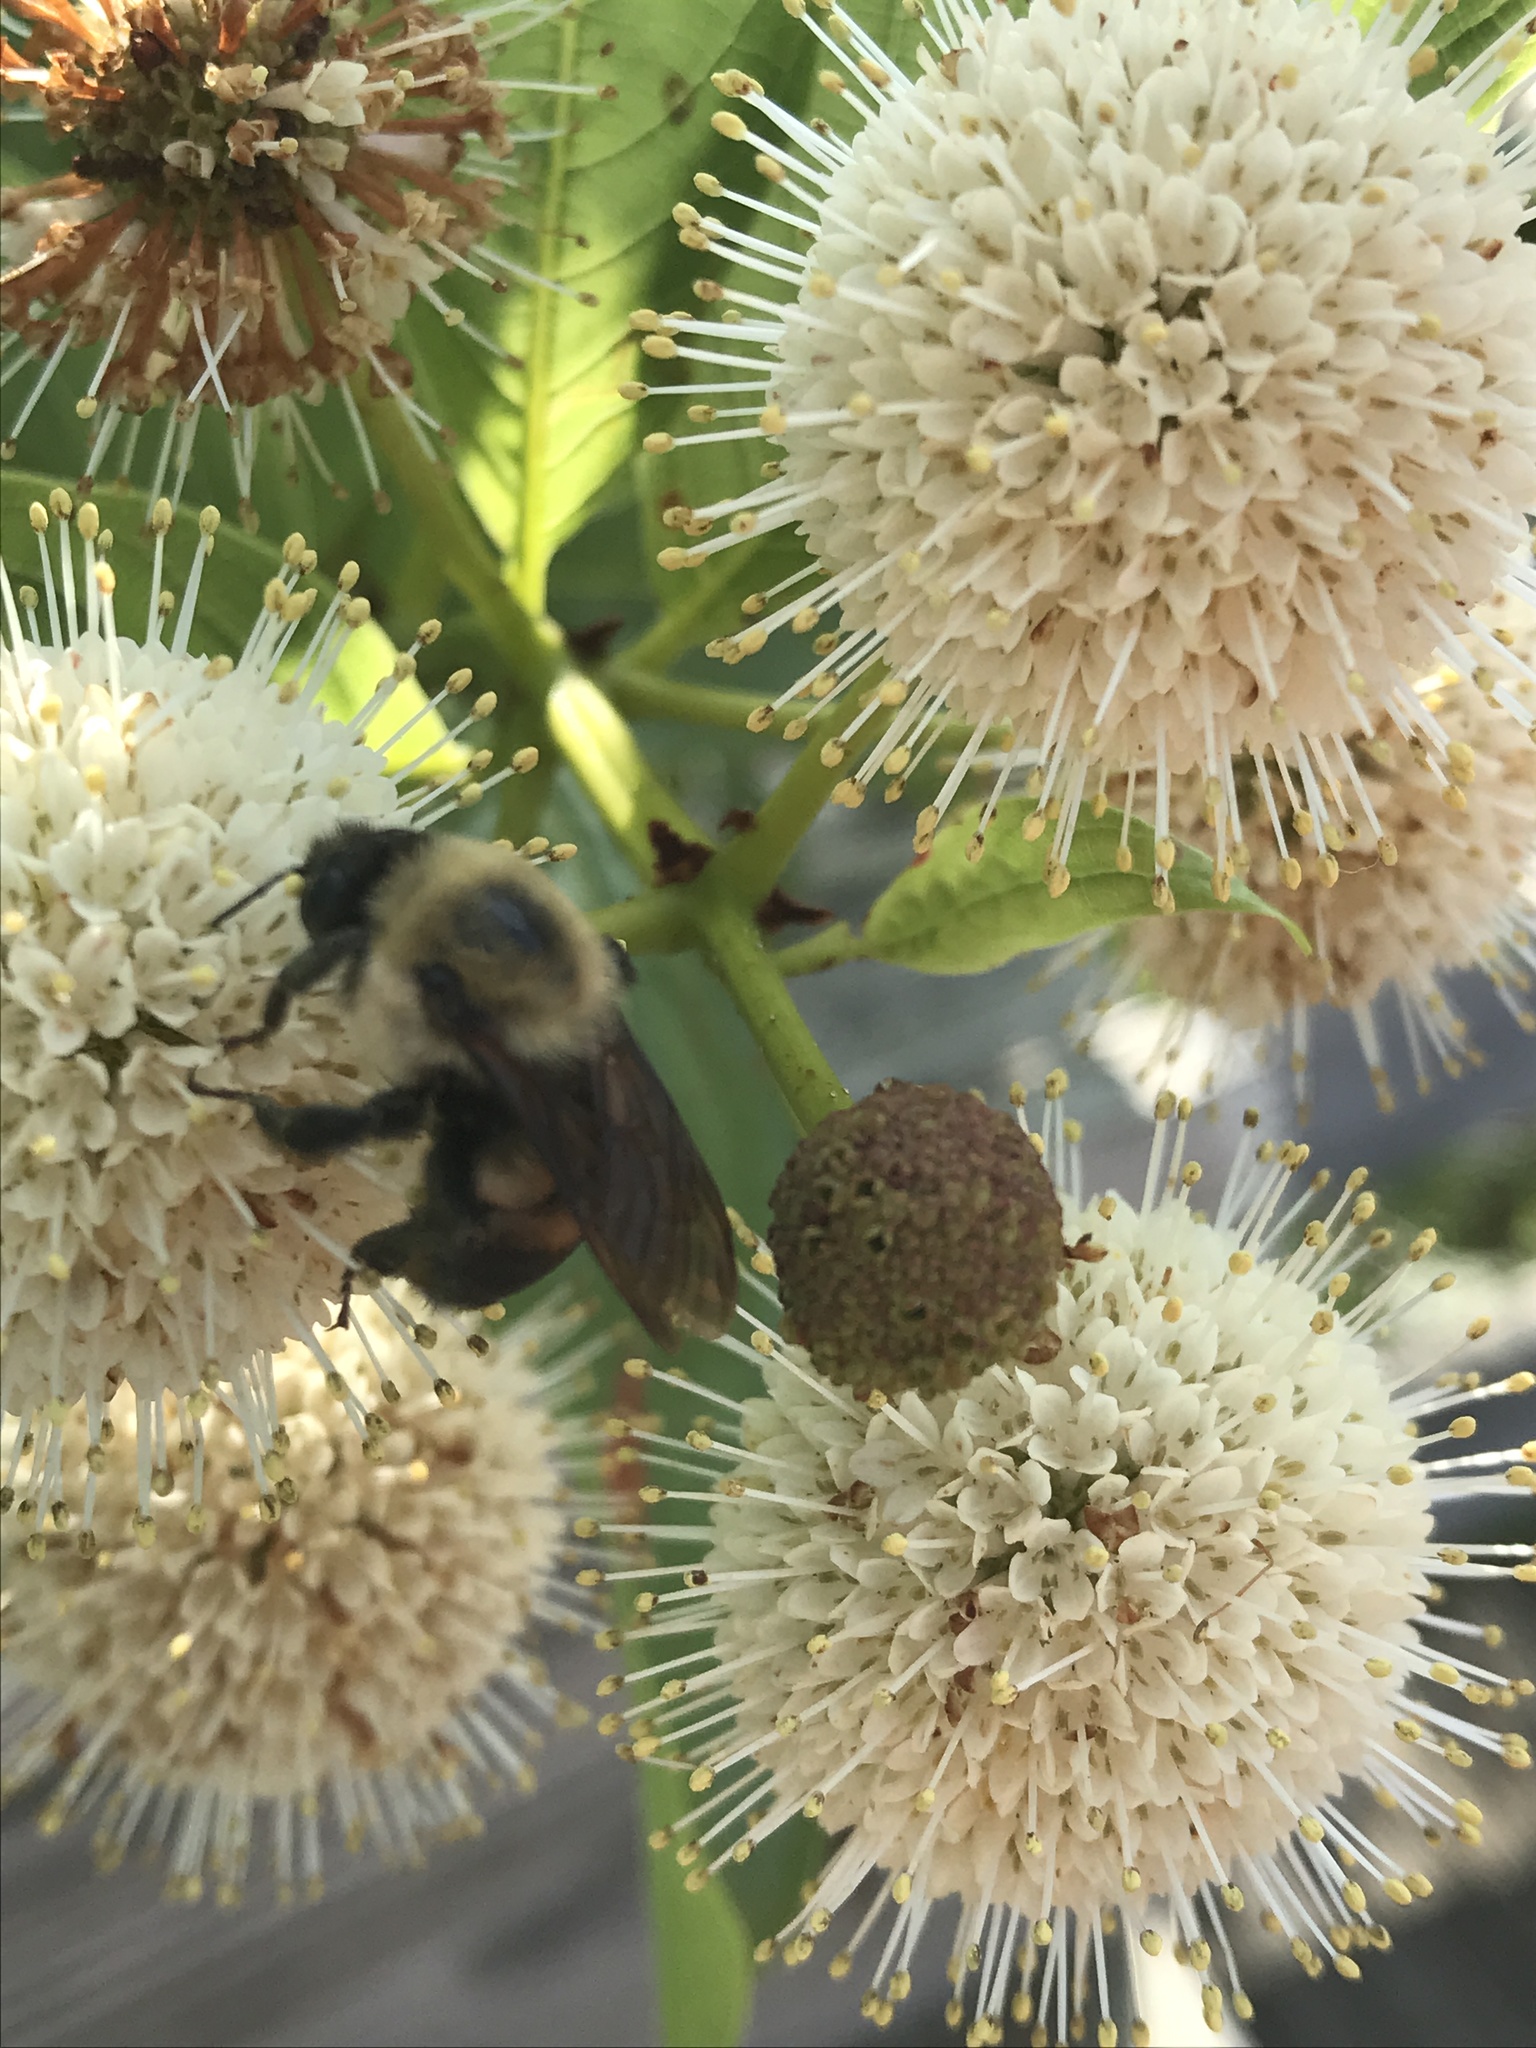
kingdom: Animalia
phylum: Arthropoda
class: Insecta
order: Hymenoptera
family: Apidae
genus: Bombus
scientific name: Bombus griseocollis
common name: Brown-belted bumble bee
